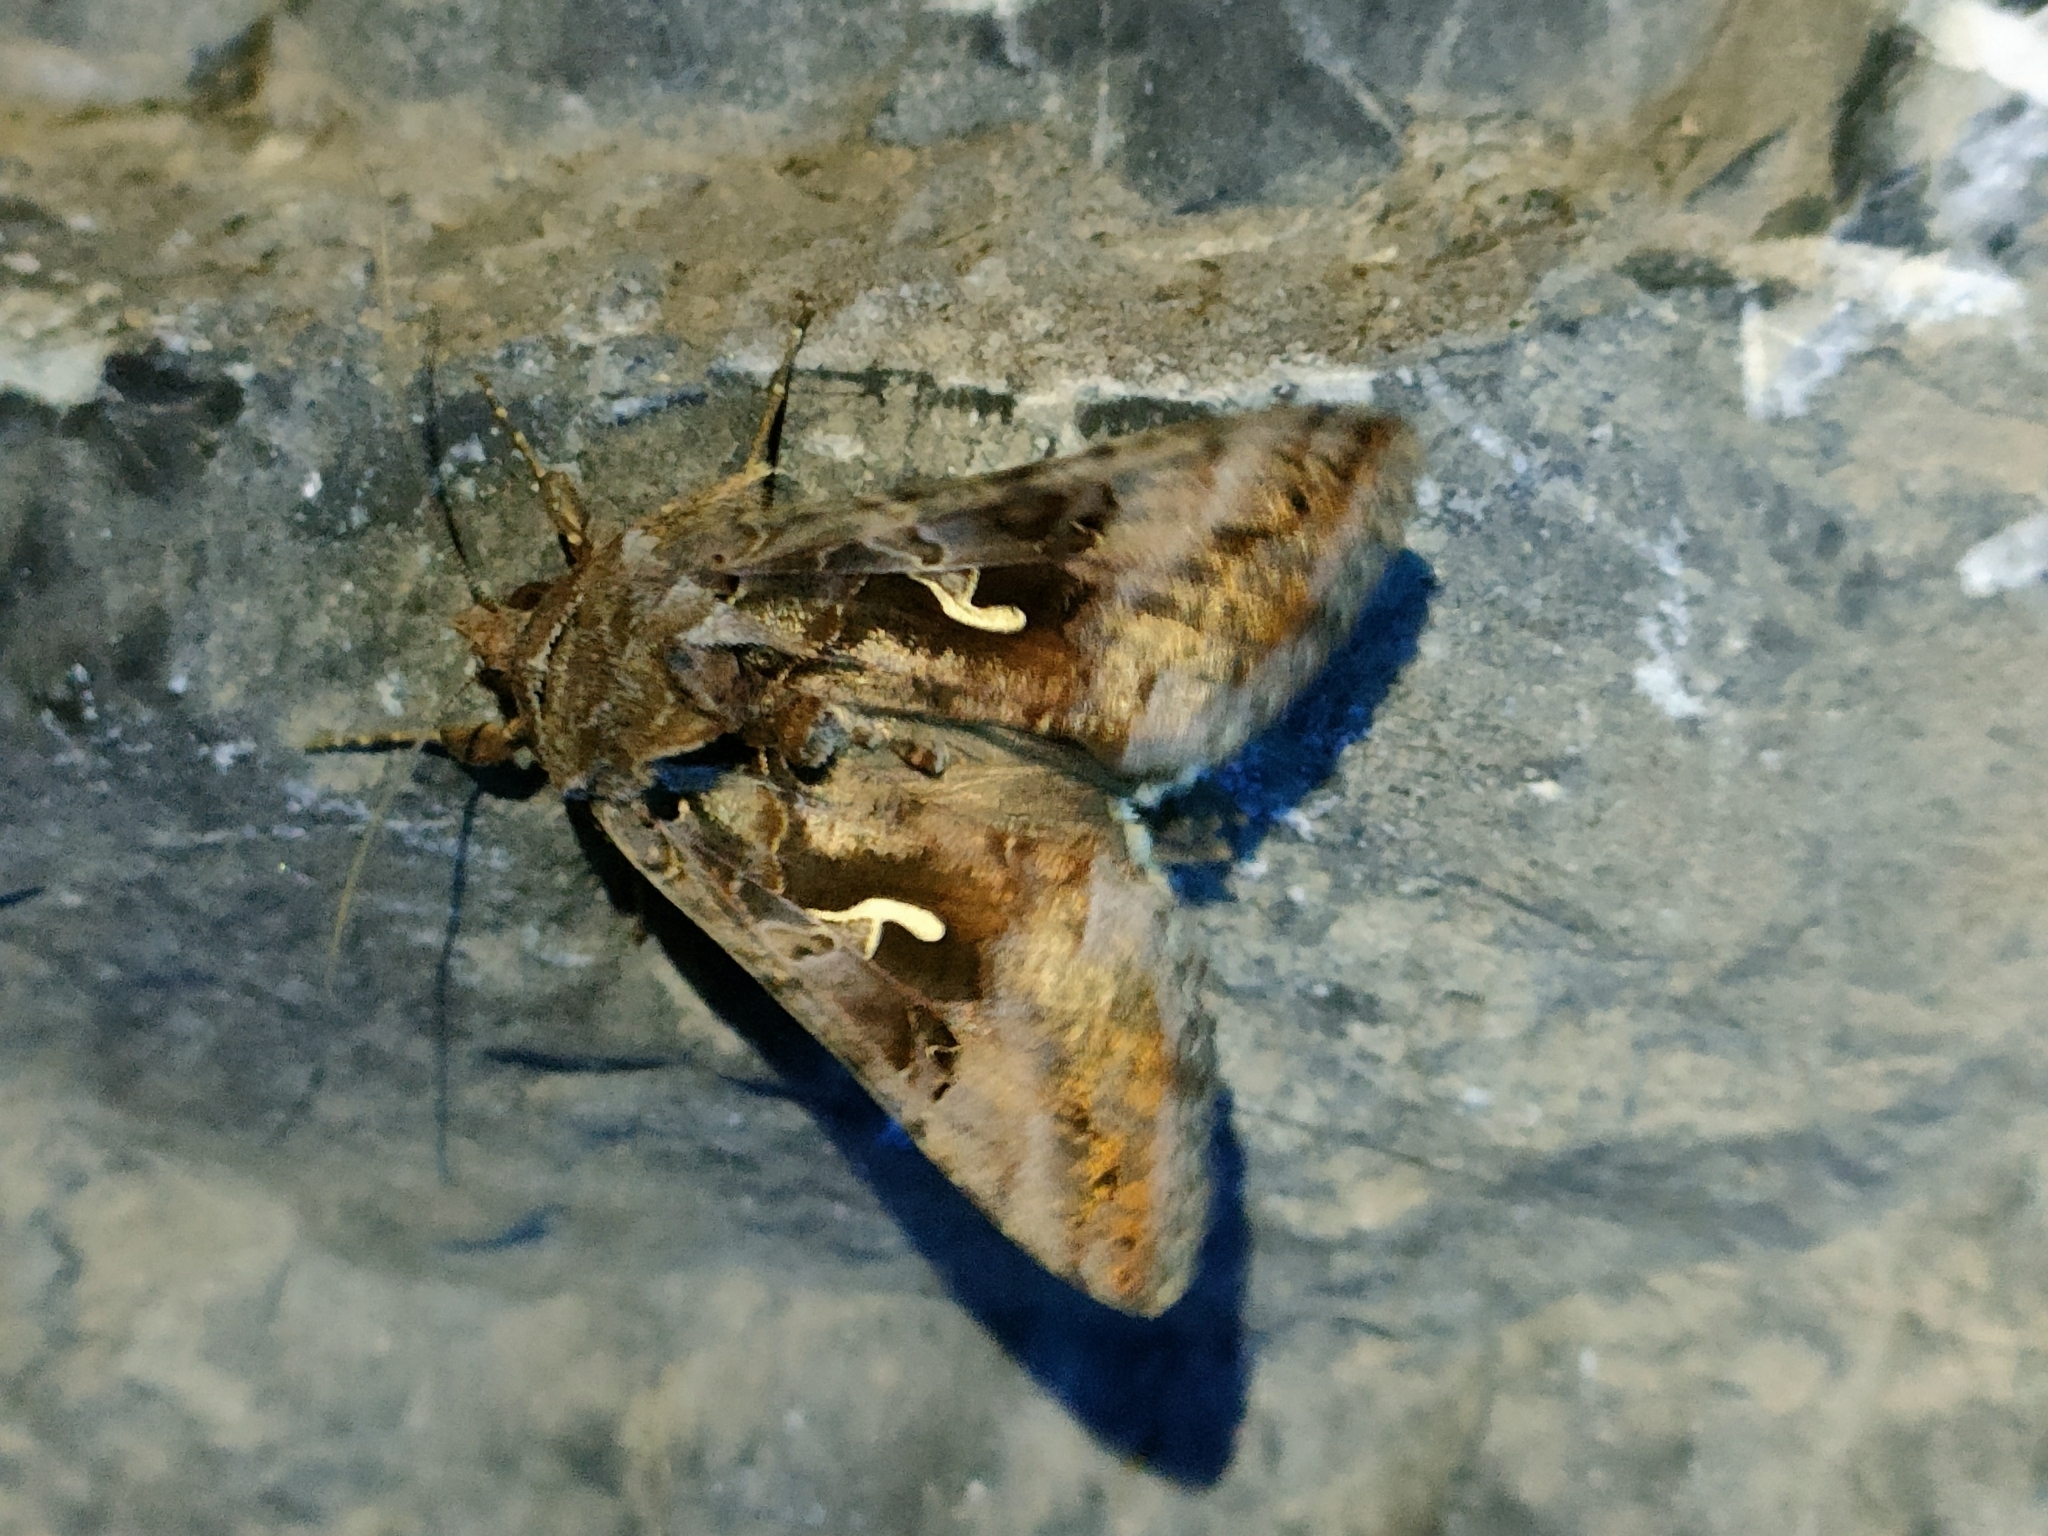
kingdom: Animalia
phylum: Arthropoda
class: Insecta
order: Lepidoptera
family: Noctuidae
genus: Autographa
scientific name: Autographa gamma
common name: Silver y
